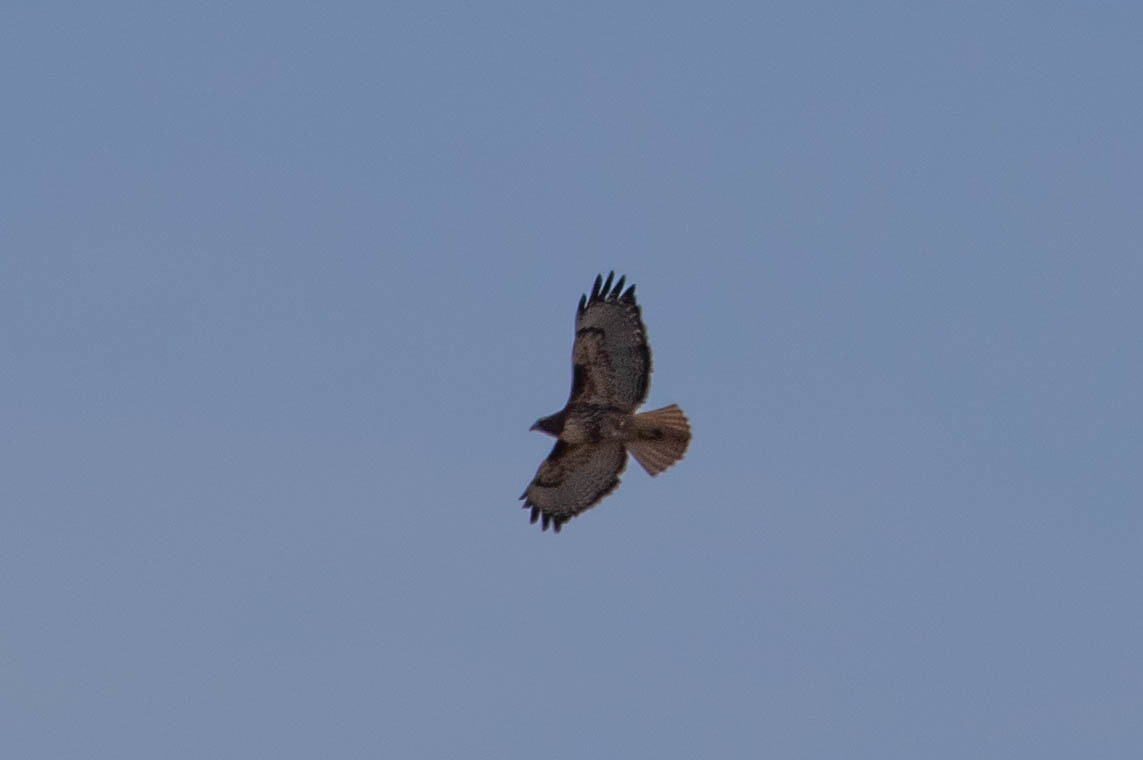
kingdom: Animalia
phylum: Chordata
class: Aves
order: Accipitriformes
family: Accipitridae
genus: Buteo
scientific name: Buteo jamaicensis
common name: Red-tailed hawk
